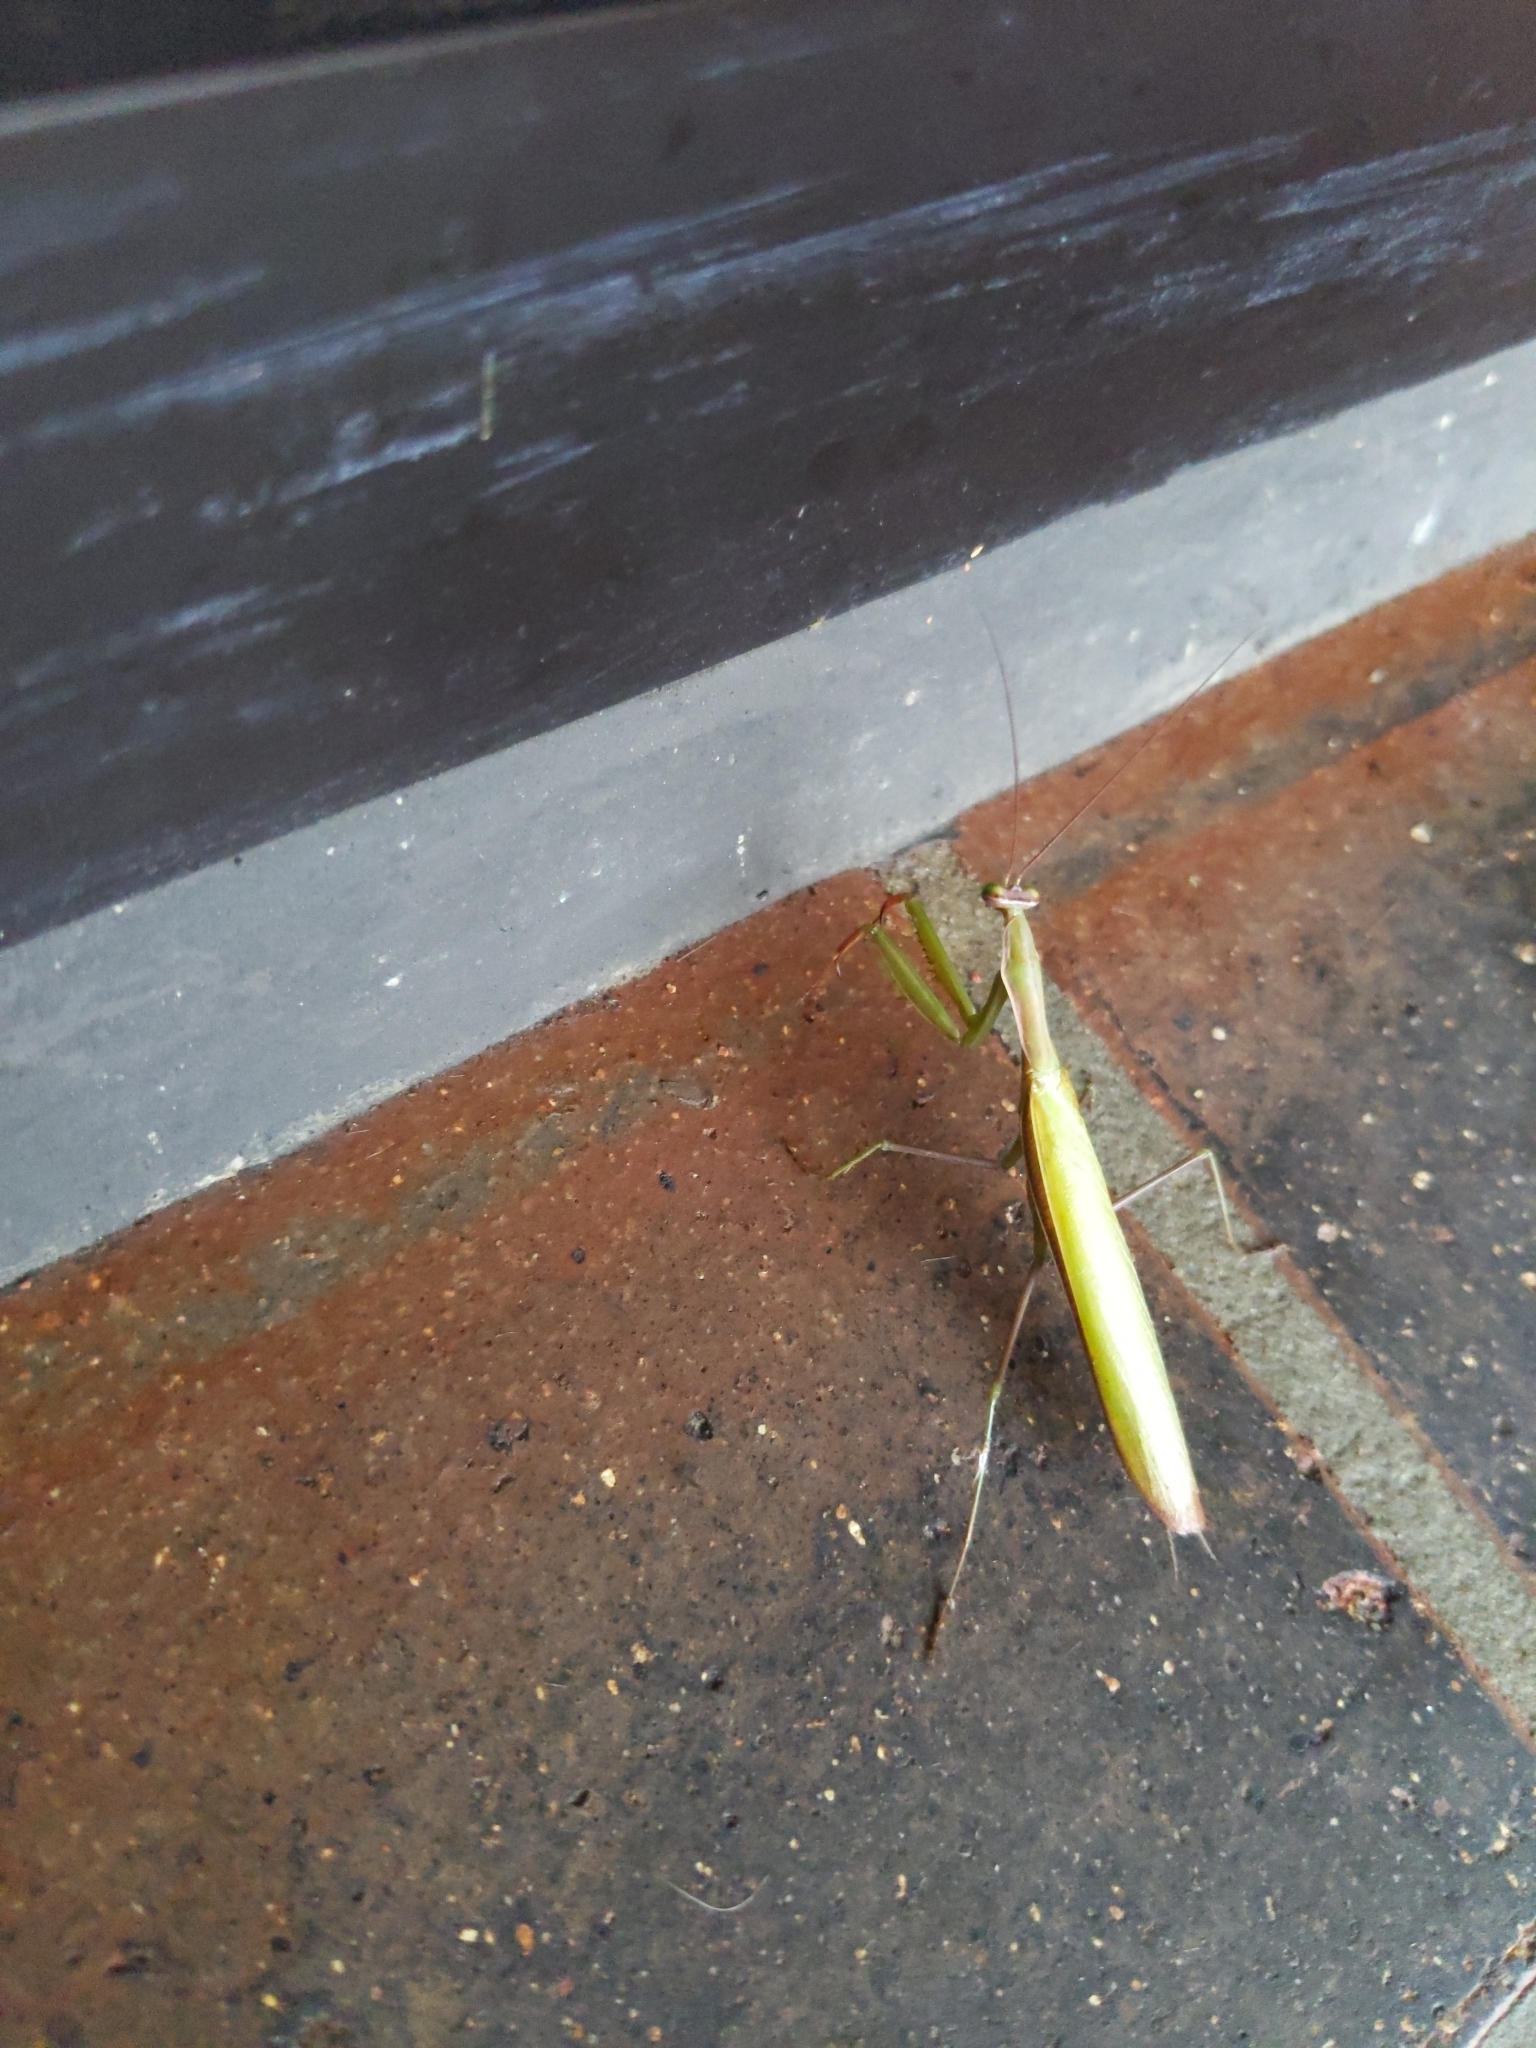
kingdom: Animalia
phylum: Arthropoda
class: Insecta
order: Mantodea
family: Mantidae
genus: Mantis
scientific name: Mantis religiosa
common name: Praying mantis
